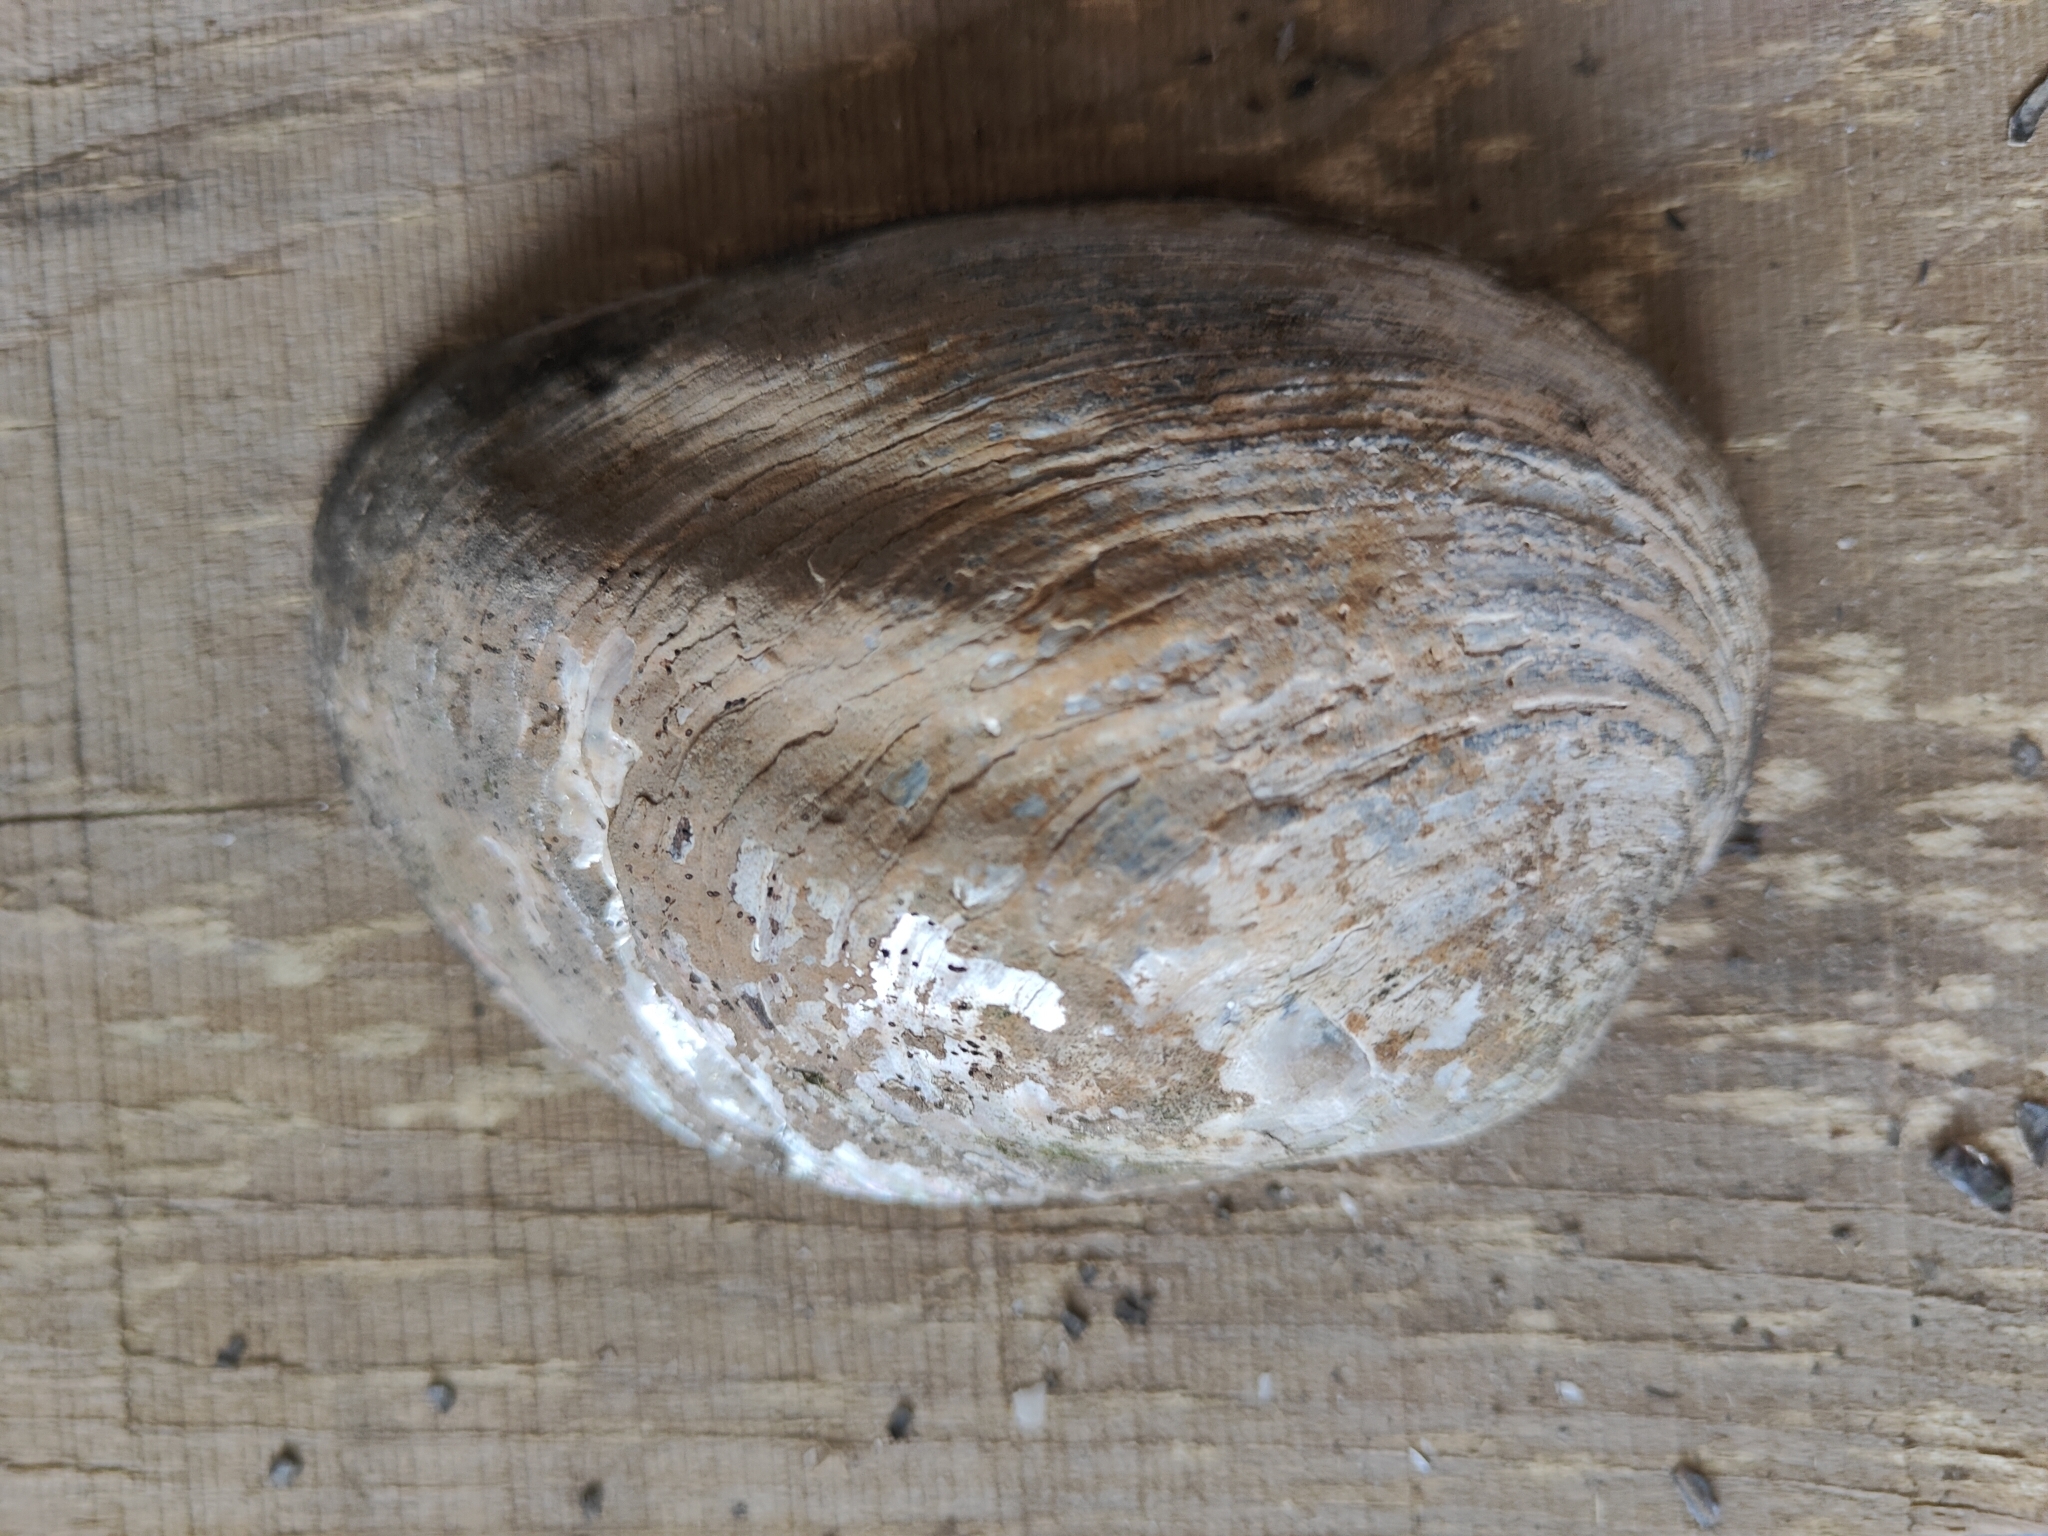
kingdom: Animalia
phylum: Mollusca
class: Bivalvia
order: Unionida
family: Unionidae
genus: Amblema
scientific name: Amblema plicata
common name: Threeridge
